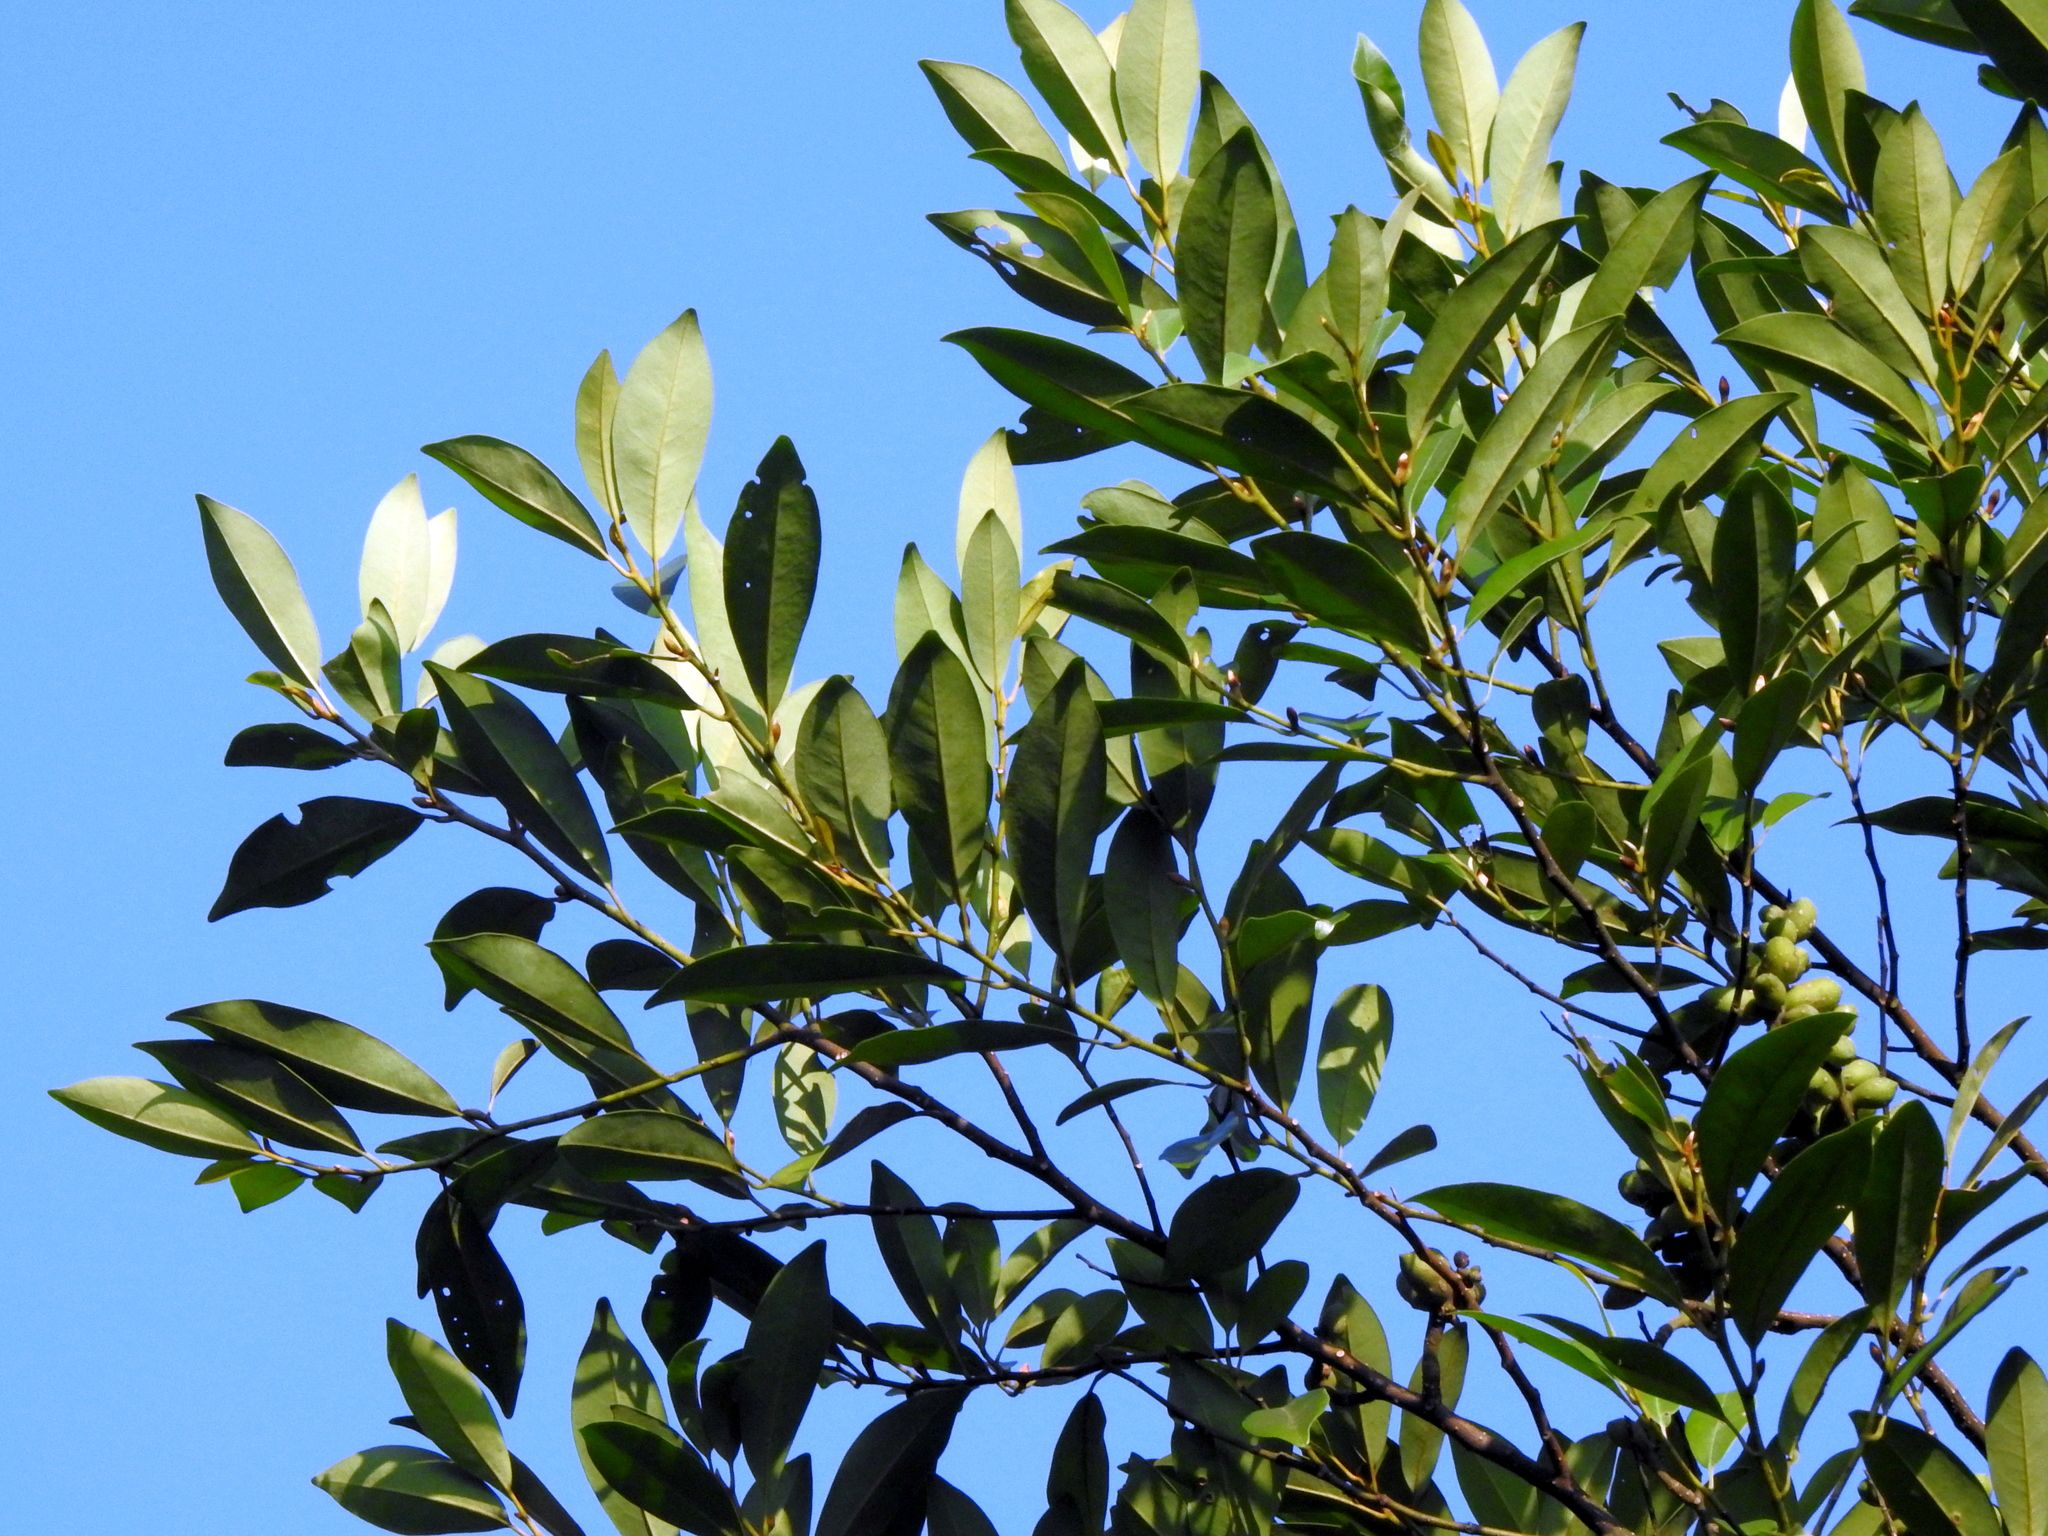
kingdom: Plantae
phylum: Tracheophyta
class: Magnoliopsida
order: Magnoliales
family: Magnoliaceae
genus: Magnolia
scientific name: Magnolia compressa
